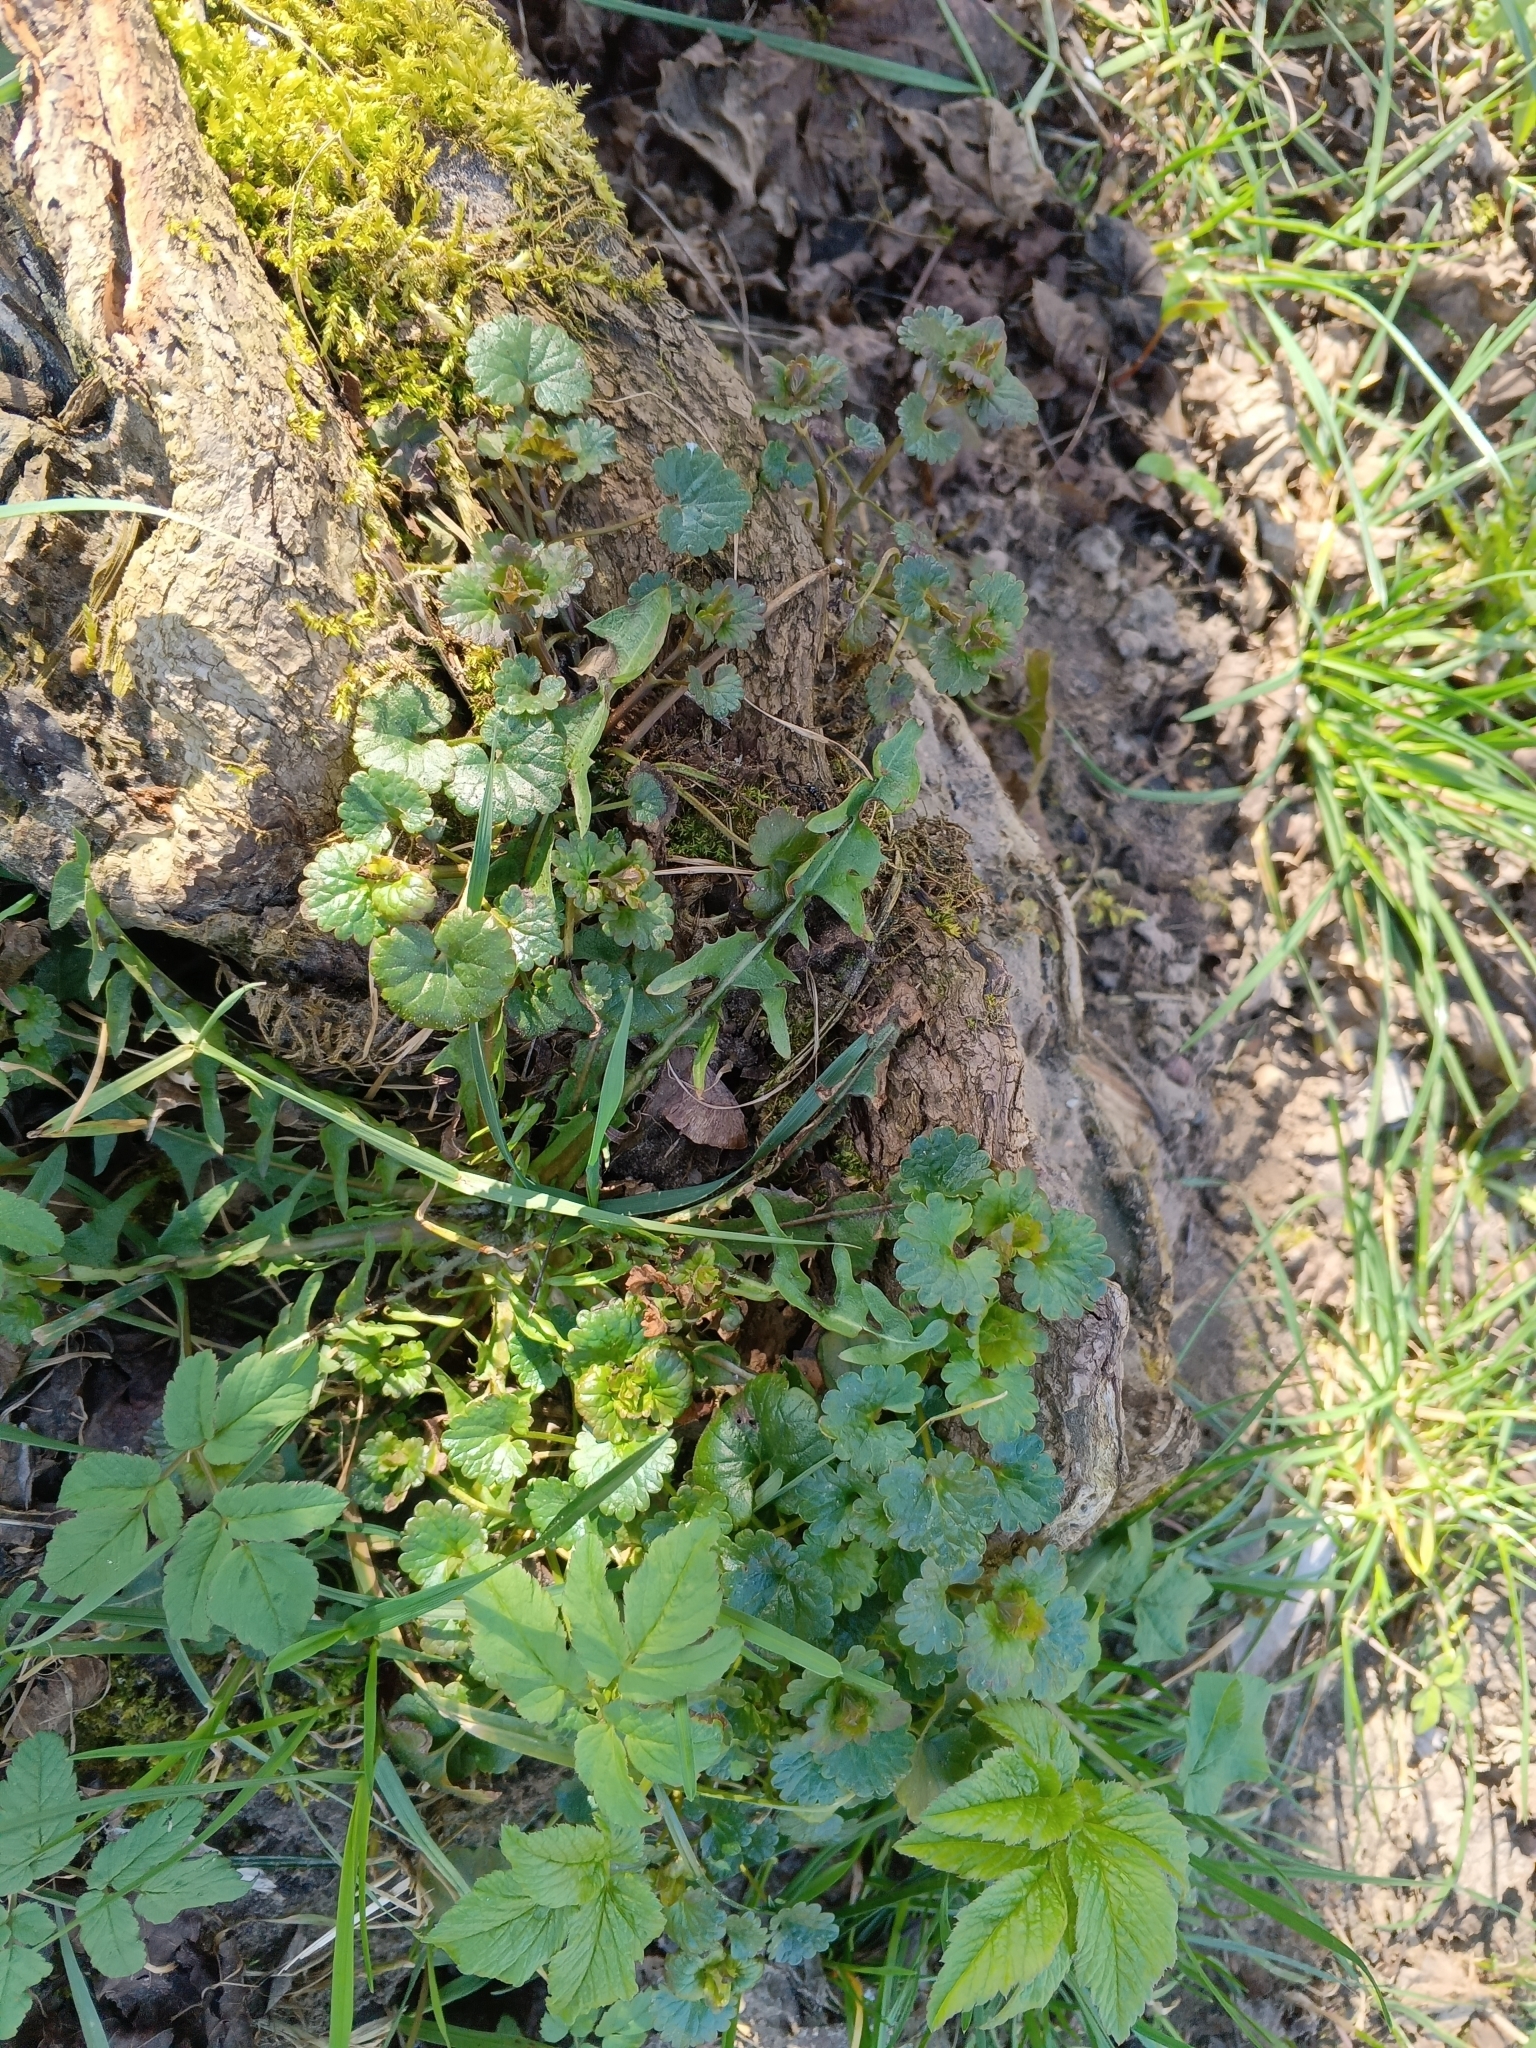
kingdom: Plantae
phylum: Tracheophyta
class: Magnoliopsida
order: Lamiales
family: Lamiaceae
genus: Glechoma
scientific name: Glechoma hederacea
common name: Ground ivy
